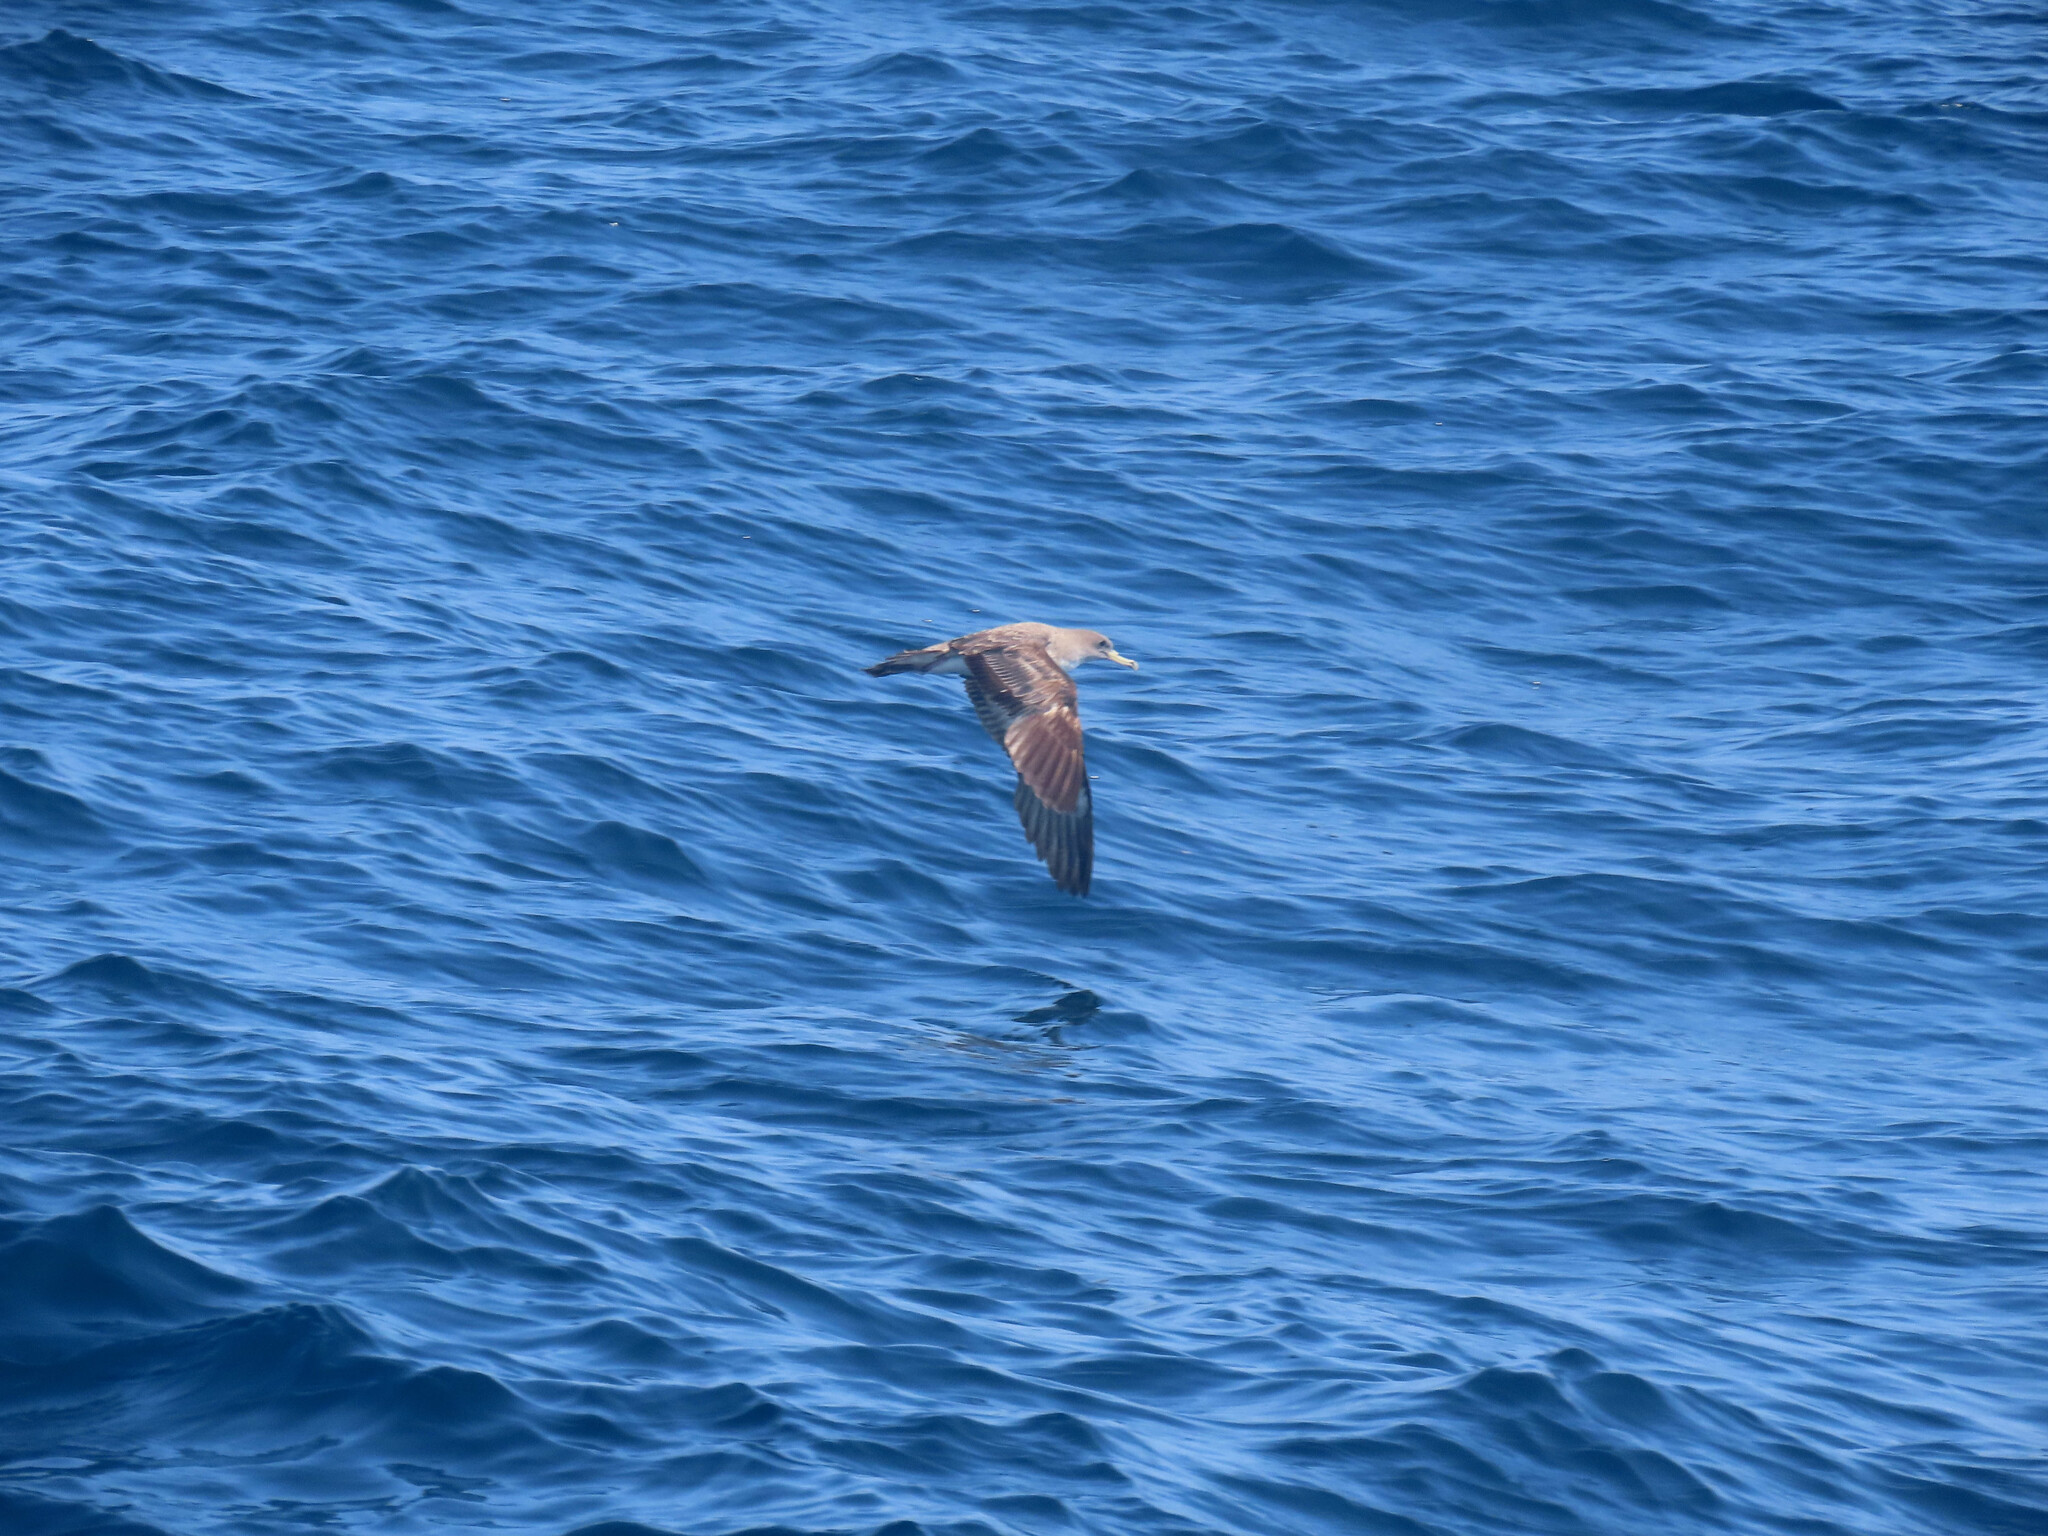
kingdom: Animalia
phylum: Chordata
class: Aves
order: Procellariiformes
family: Procellariidae
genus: Calonectris
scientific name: Calonectris diomedea
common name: Cory's shearwater
